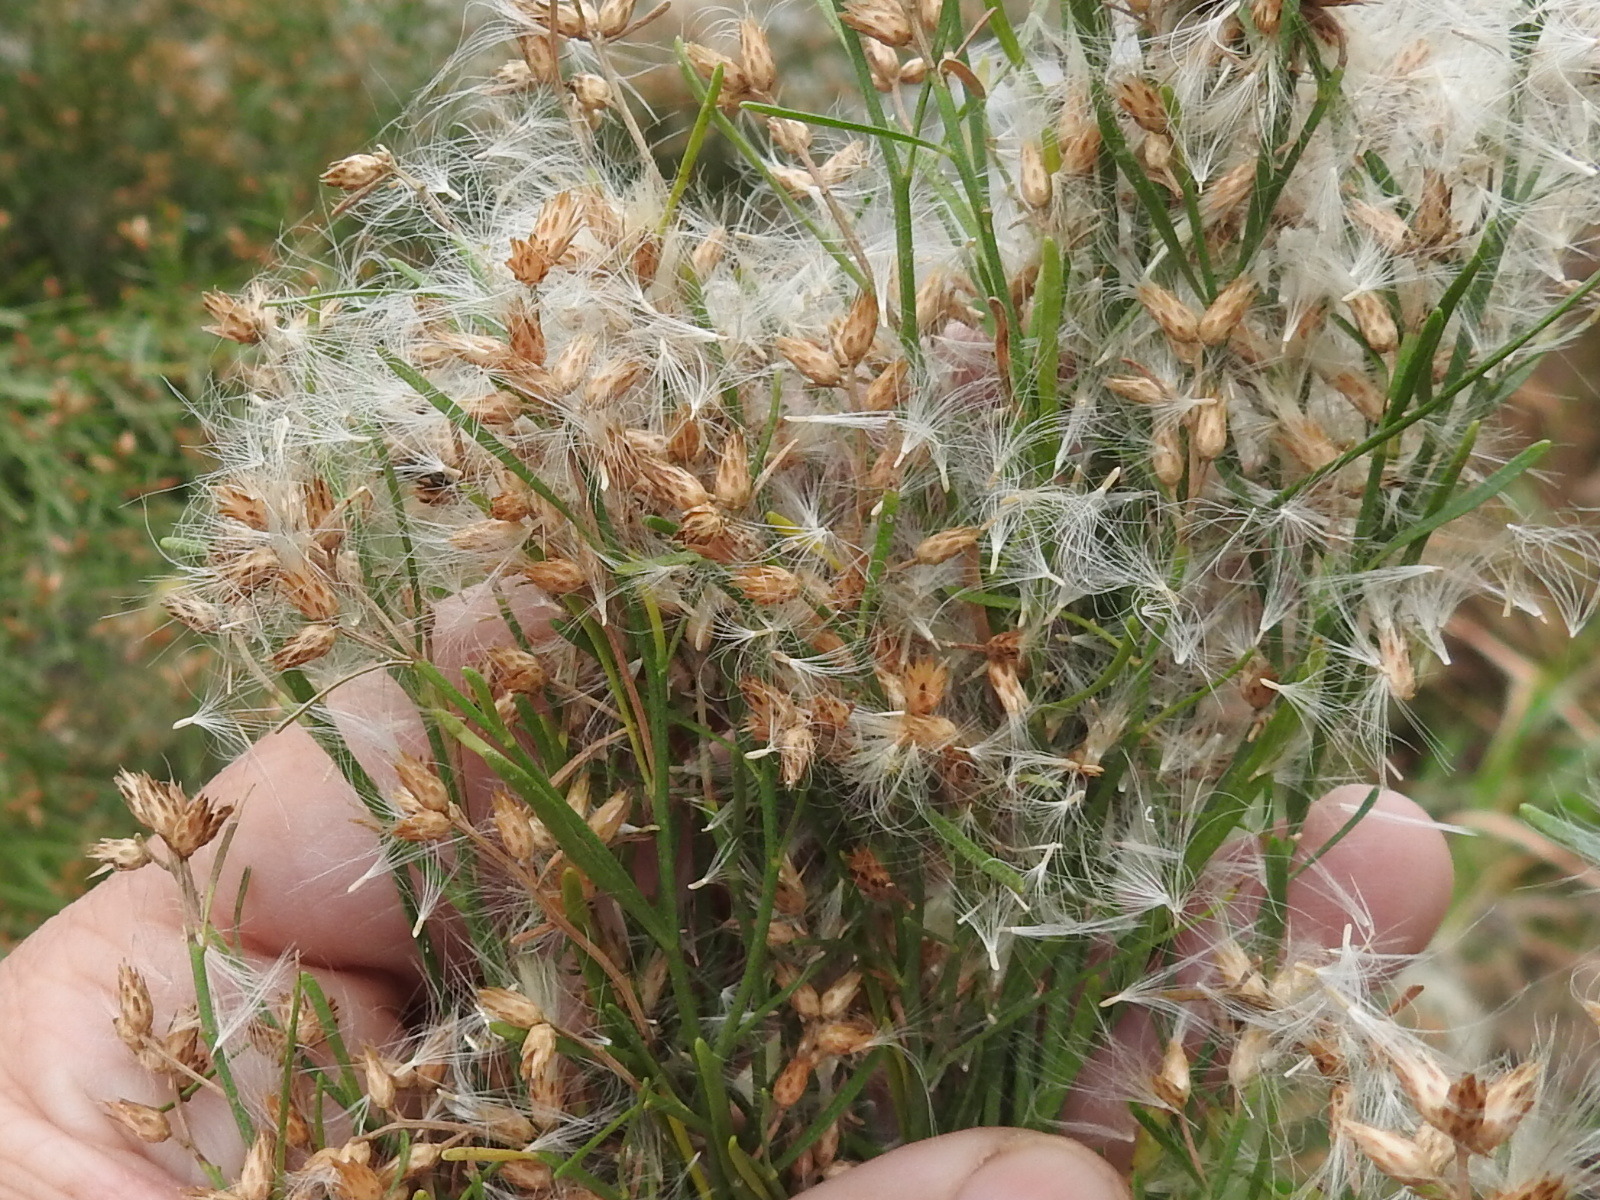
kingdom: Plantae
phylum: Tracheophyta
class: Magnoliopsida
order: Asterales
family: Asteraceae
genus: Baccharis
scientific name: Baccharis neglecta
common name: Roosevelt-weed
